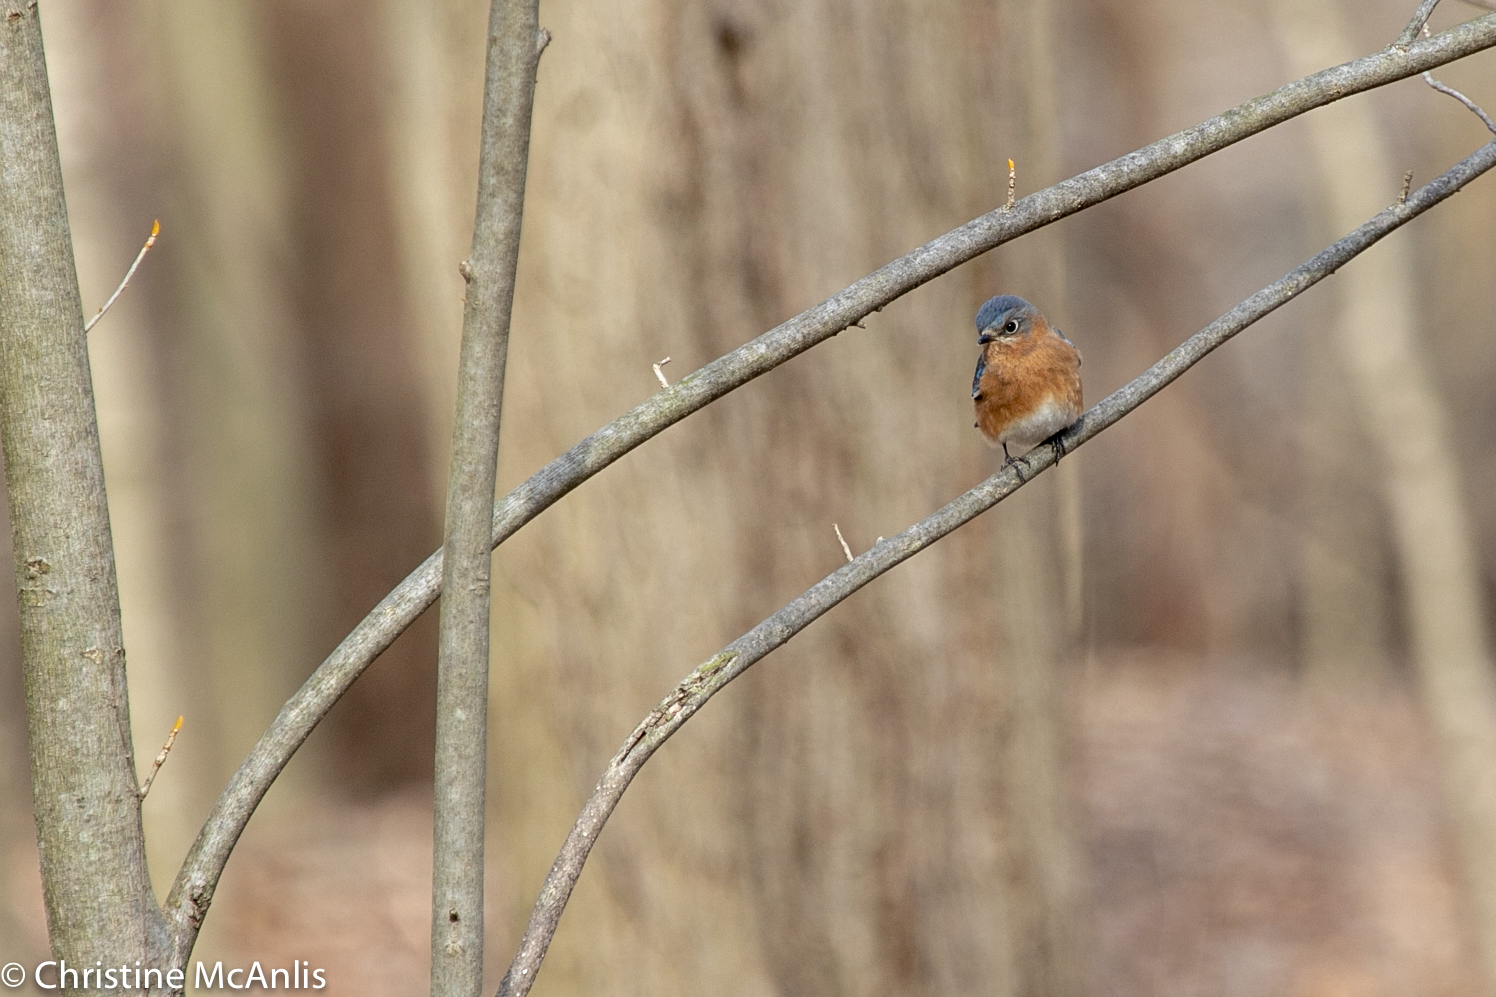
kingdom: Animalia
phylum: Chordata
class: Aves
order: Passeriformes
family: Turdidae
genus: Sialia
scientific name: Sialia sialis
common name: Eastern bluebird
